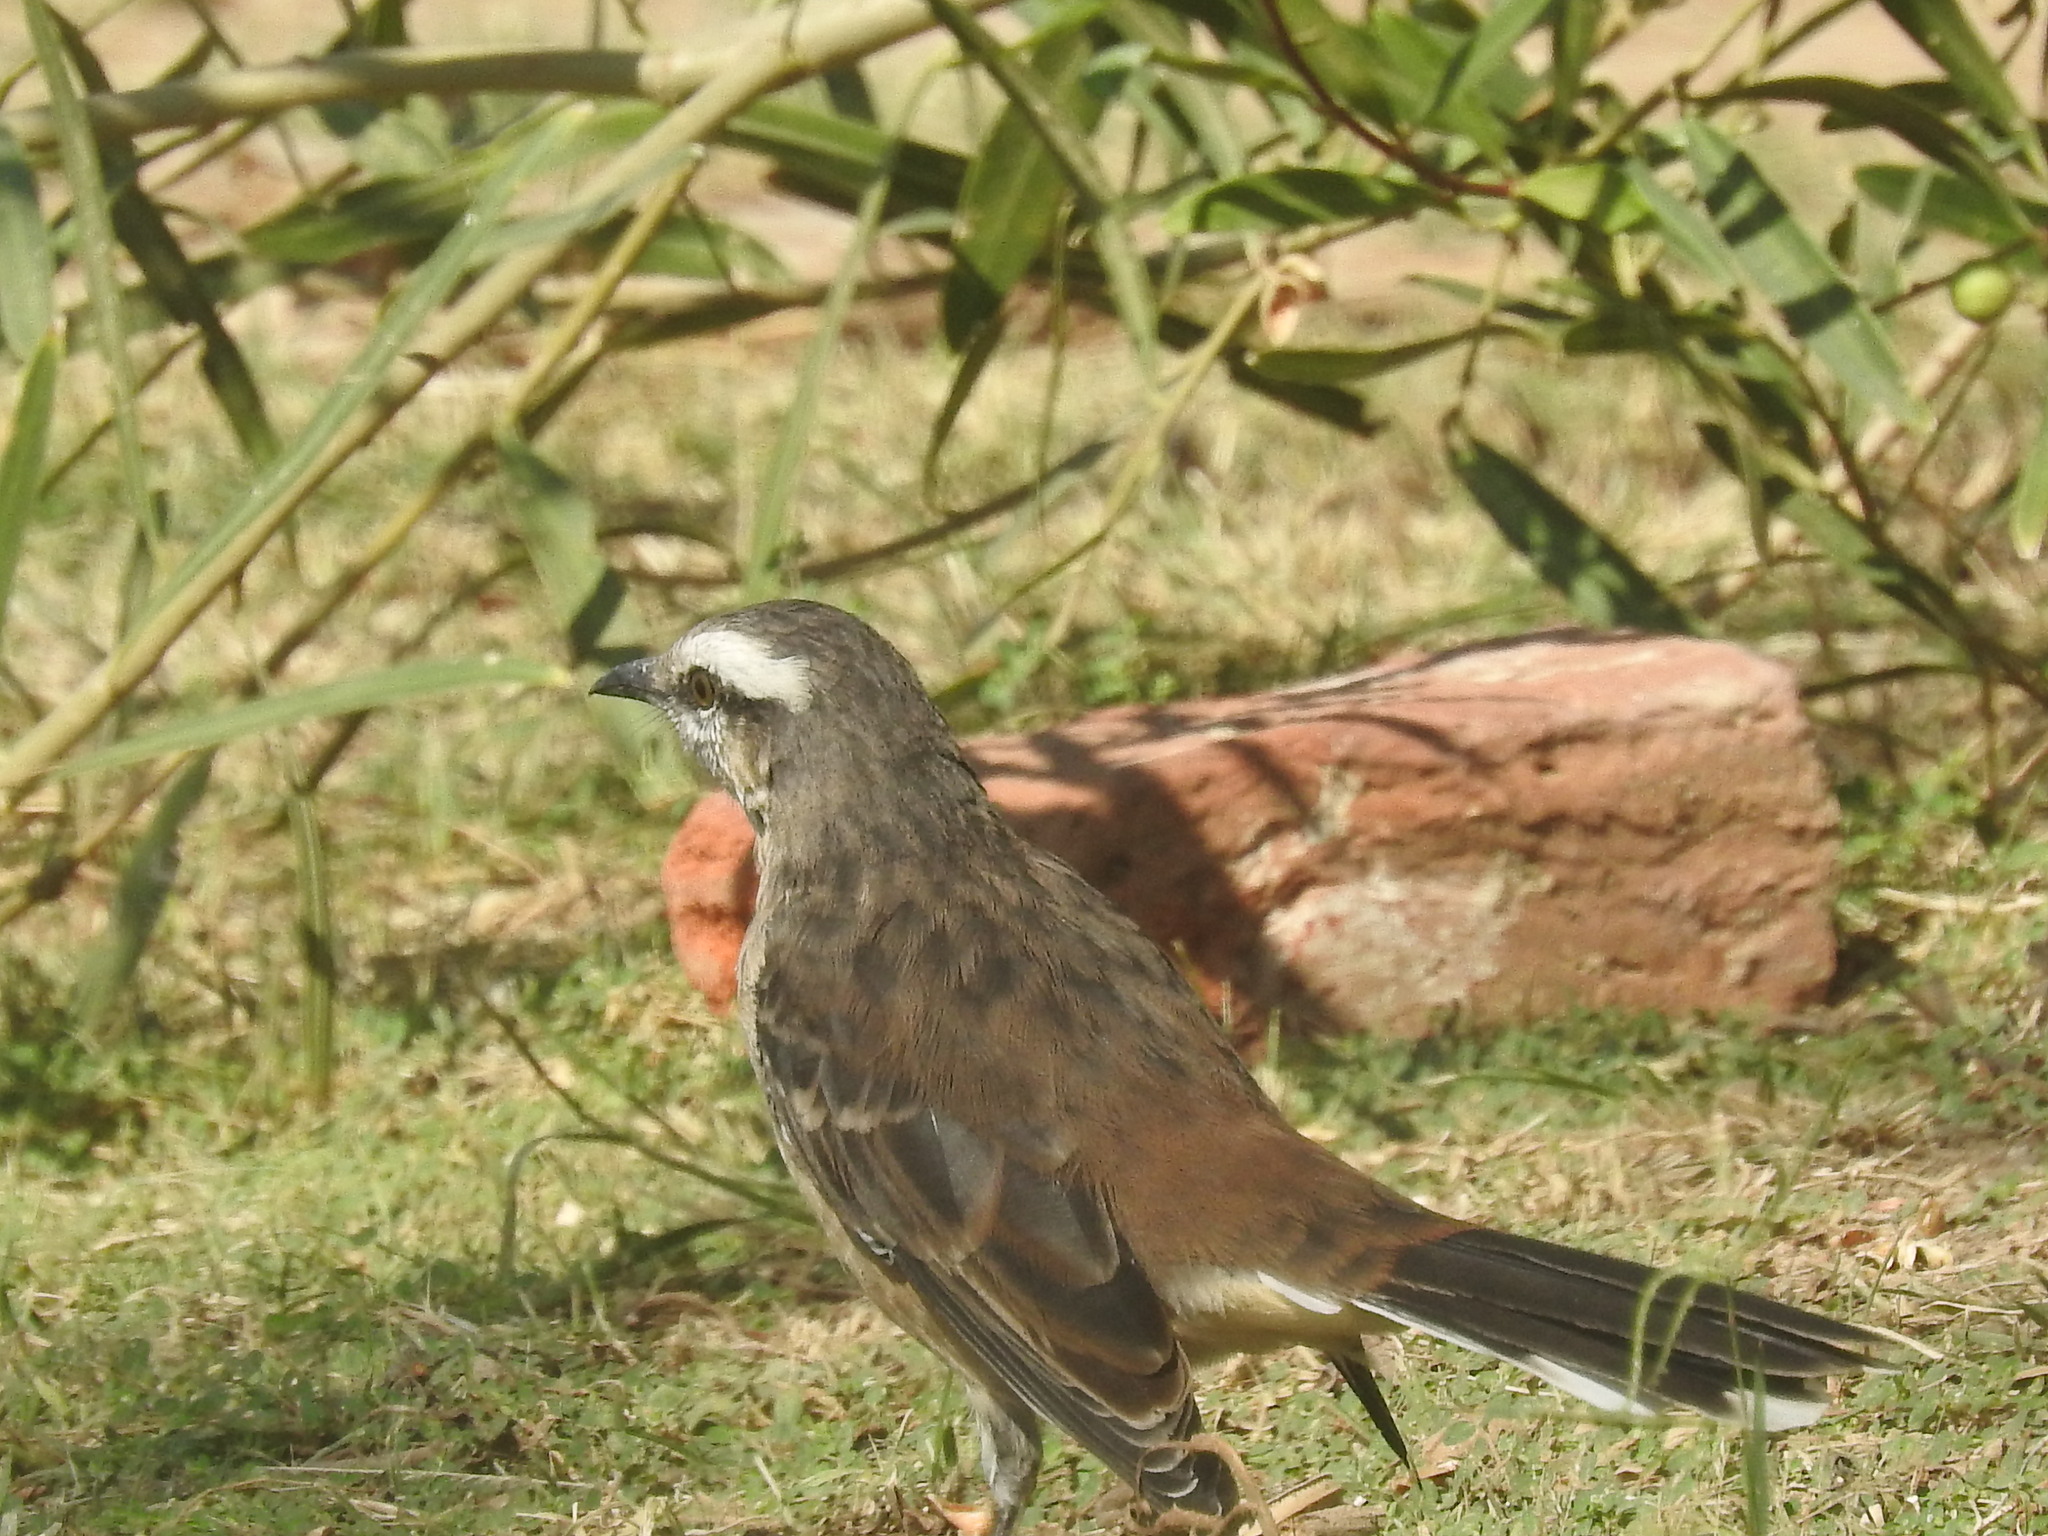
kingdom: Animalia
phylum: Chordata
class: Aves
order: Passeriformes
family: Mimidae
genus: Mimus
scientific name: Mimus saturninus
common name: Chalk-browed mockingbird
